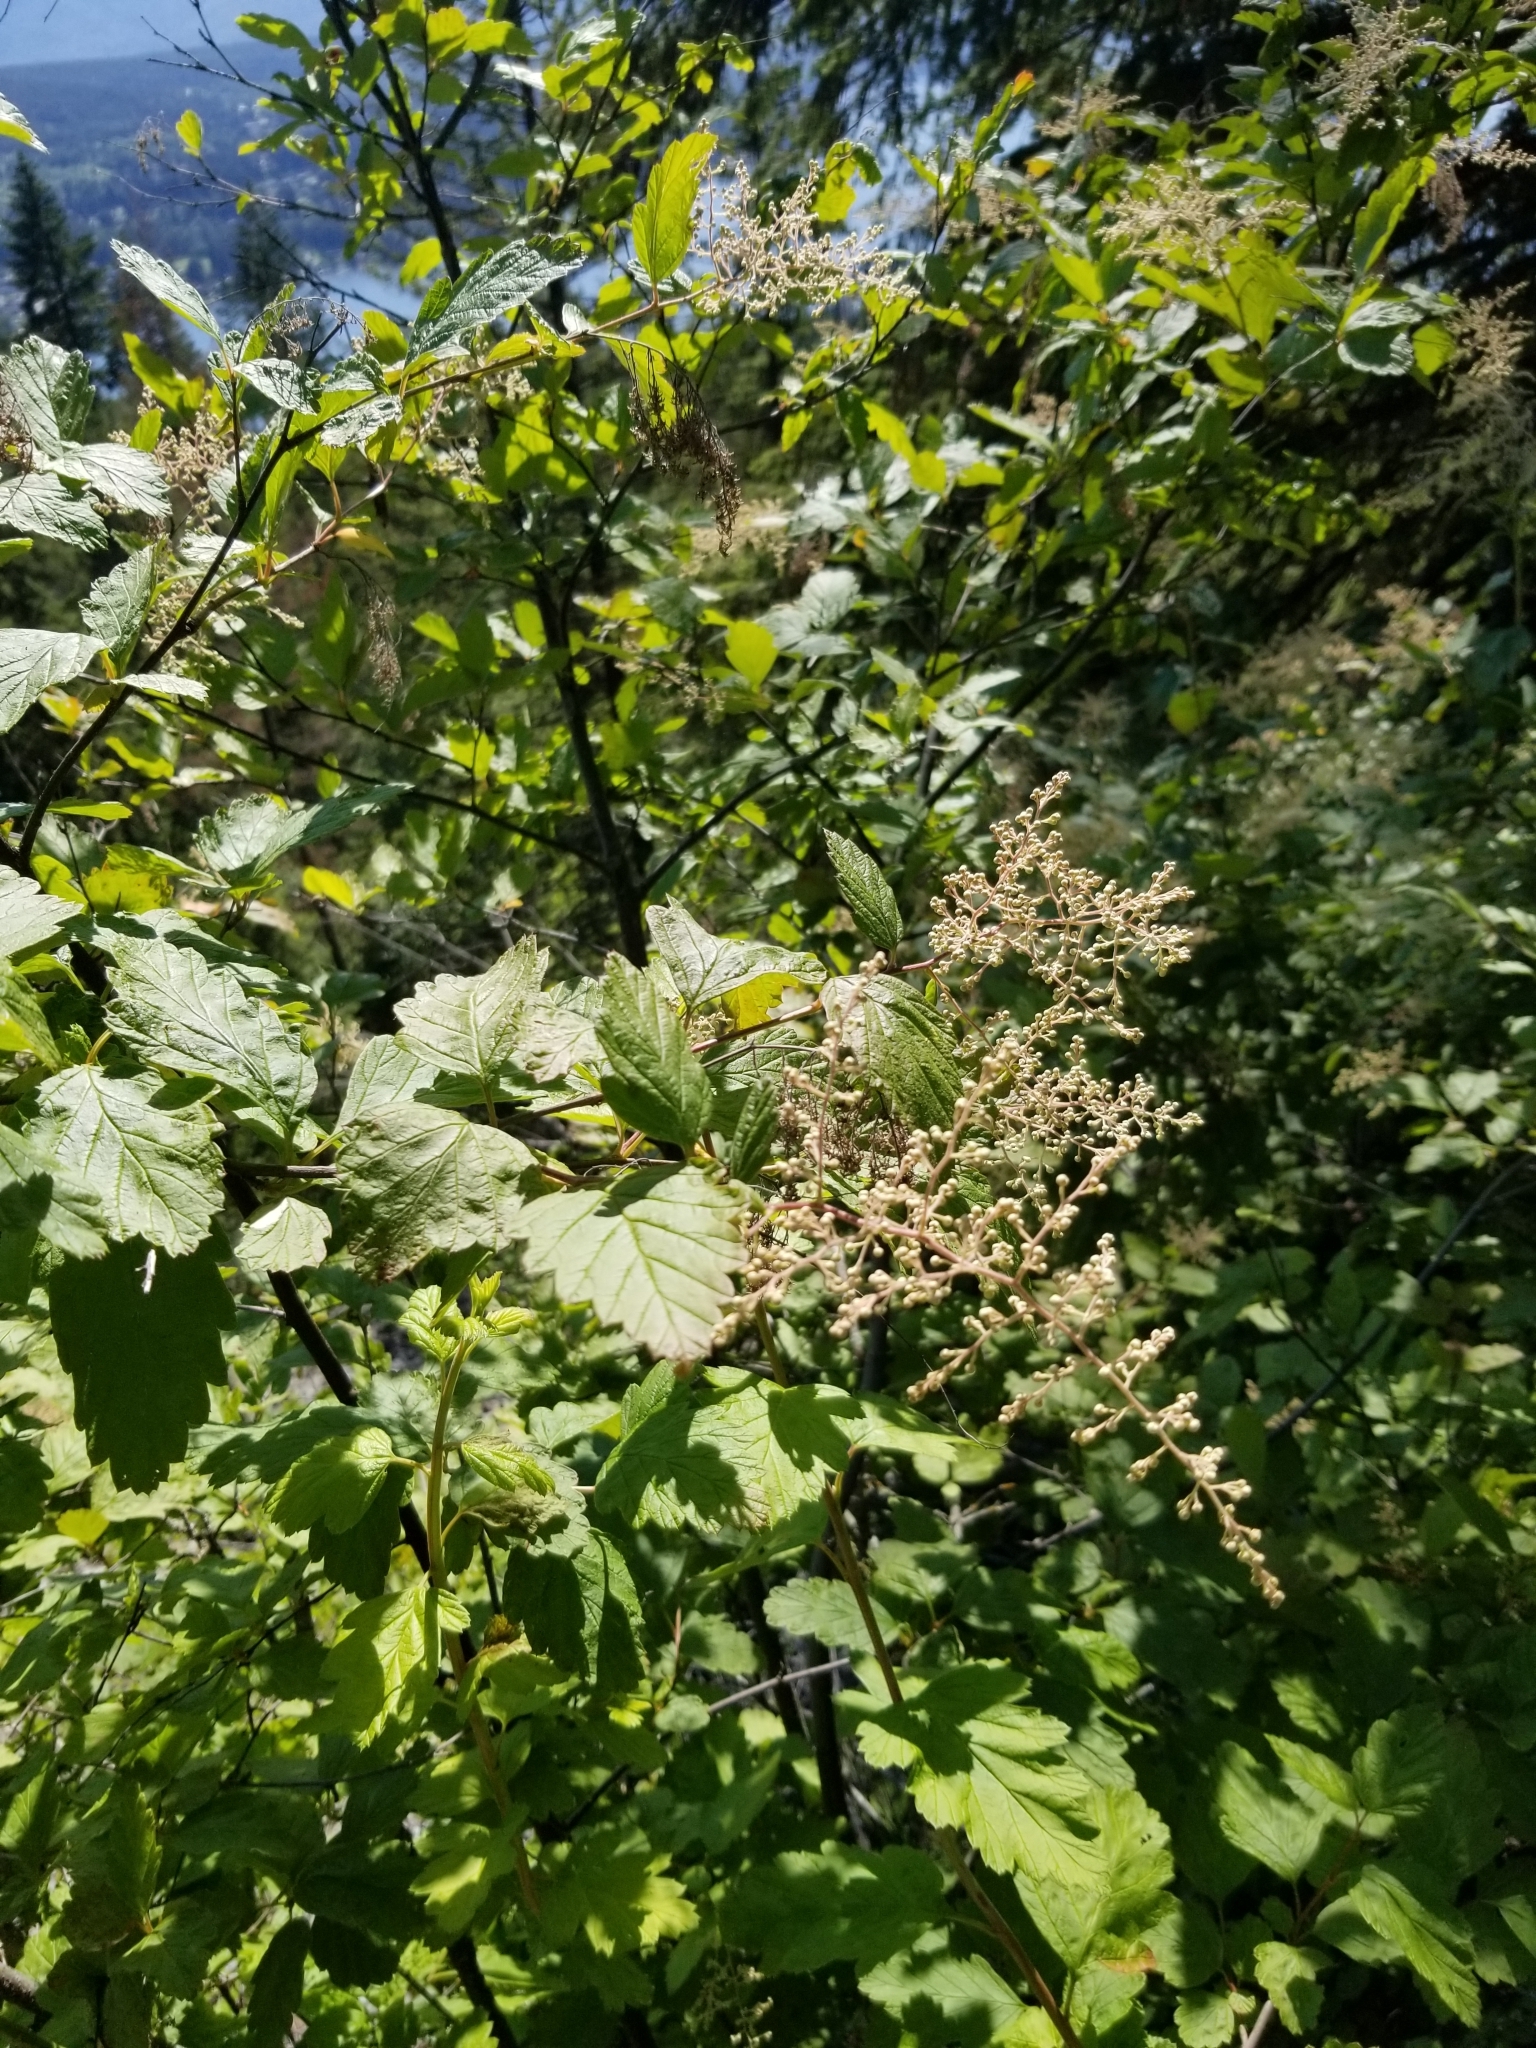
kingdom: Plantae
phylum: Tracheophyta
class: Magnoliopsida
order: Rosales
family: Rosaceae
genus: Holodiscus
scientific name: Holodiscus discolor
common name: Oceanspray
